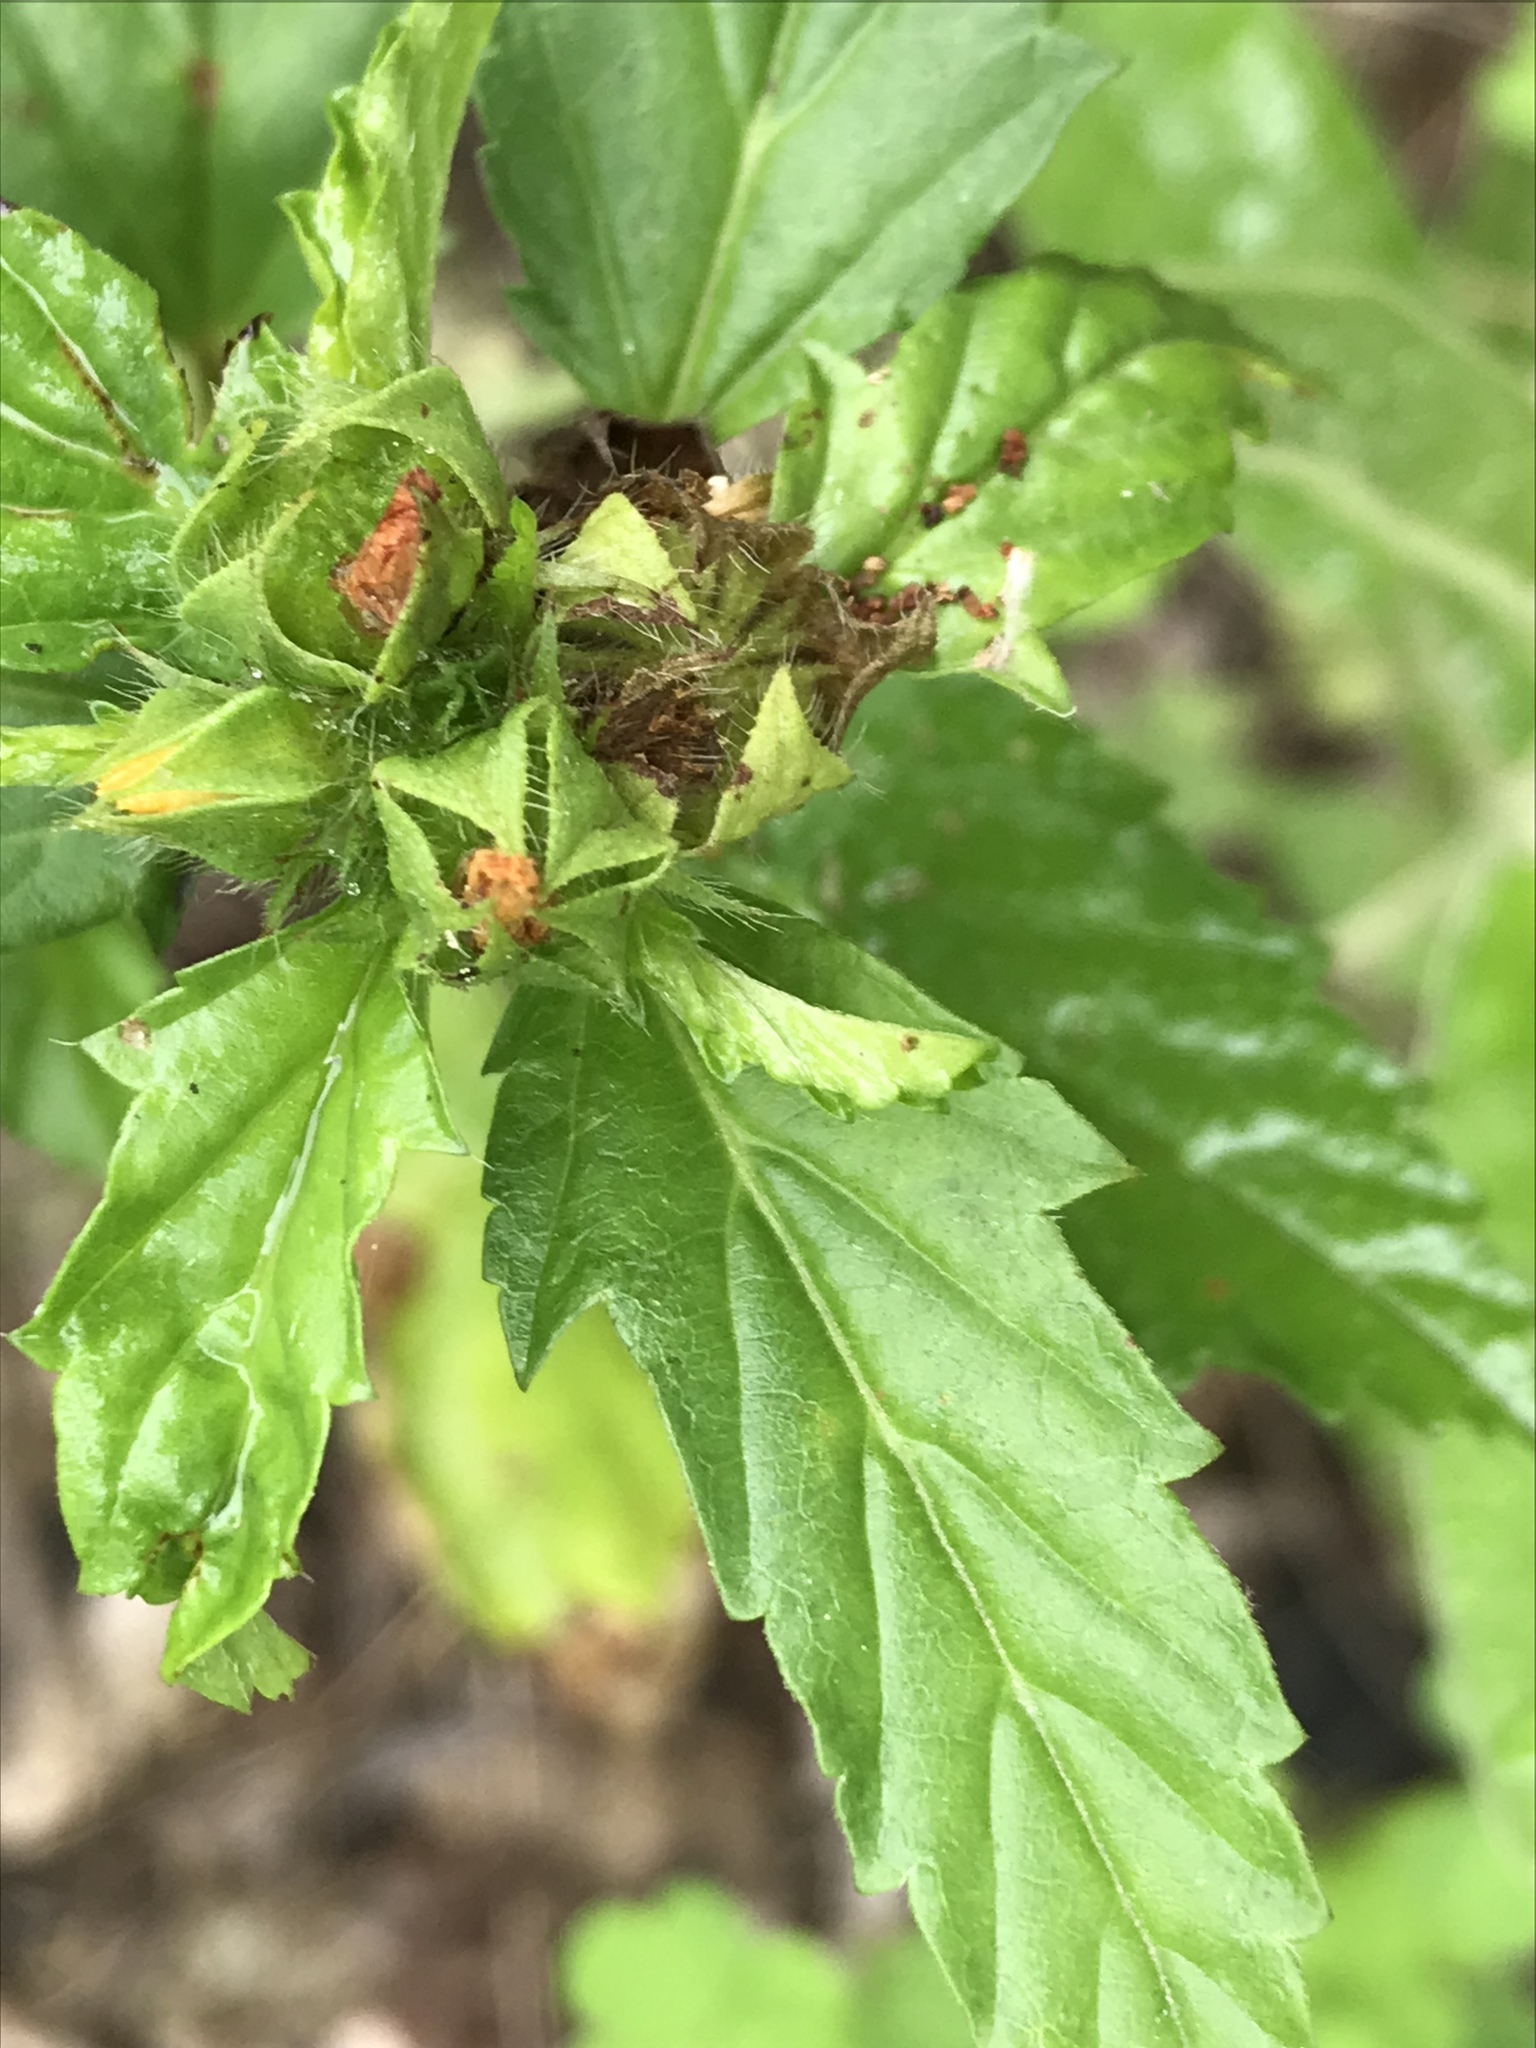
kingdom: Plantae
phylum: Tracheophyta
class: Magnoliopsida
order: Malvales
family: Malvaceae
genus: Malvastrum
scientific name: Malvastrum coromandelianum
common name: Threelobe false mallow
